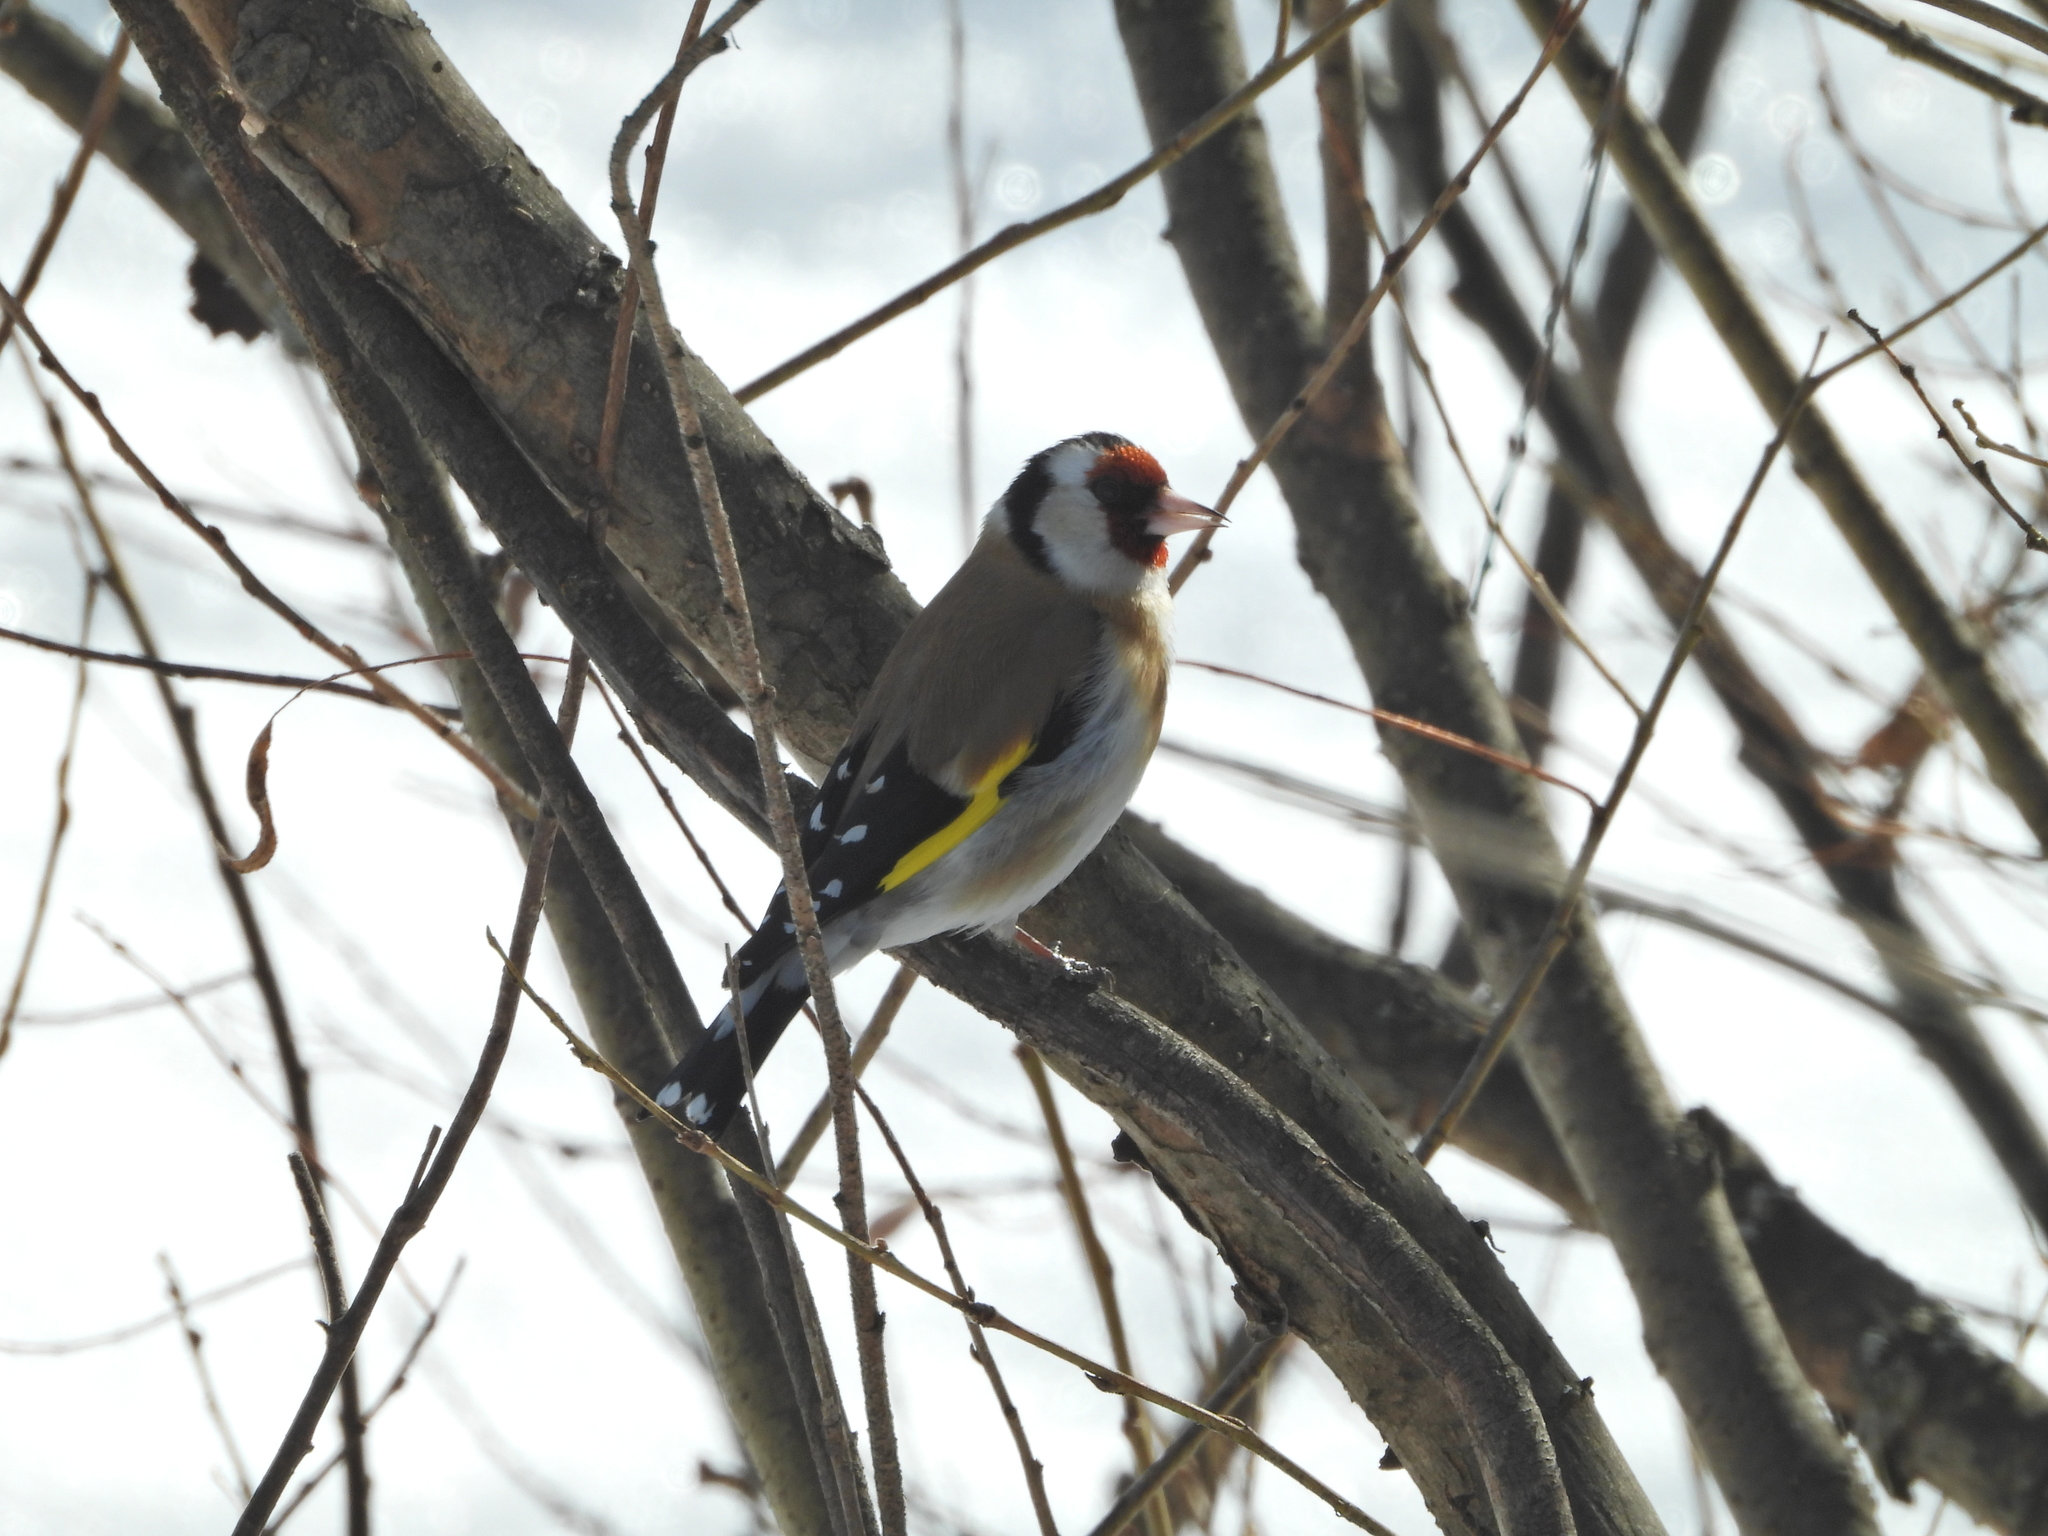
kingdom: Animalia
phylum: Chordata
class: Aves
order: Passeriformes
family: Fringillidae
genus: Carduelis
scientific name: Carduelis carduelis
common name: European goldfinch
